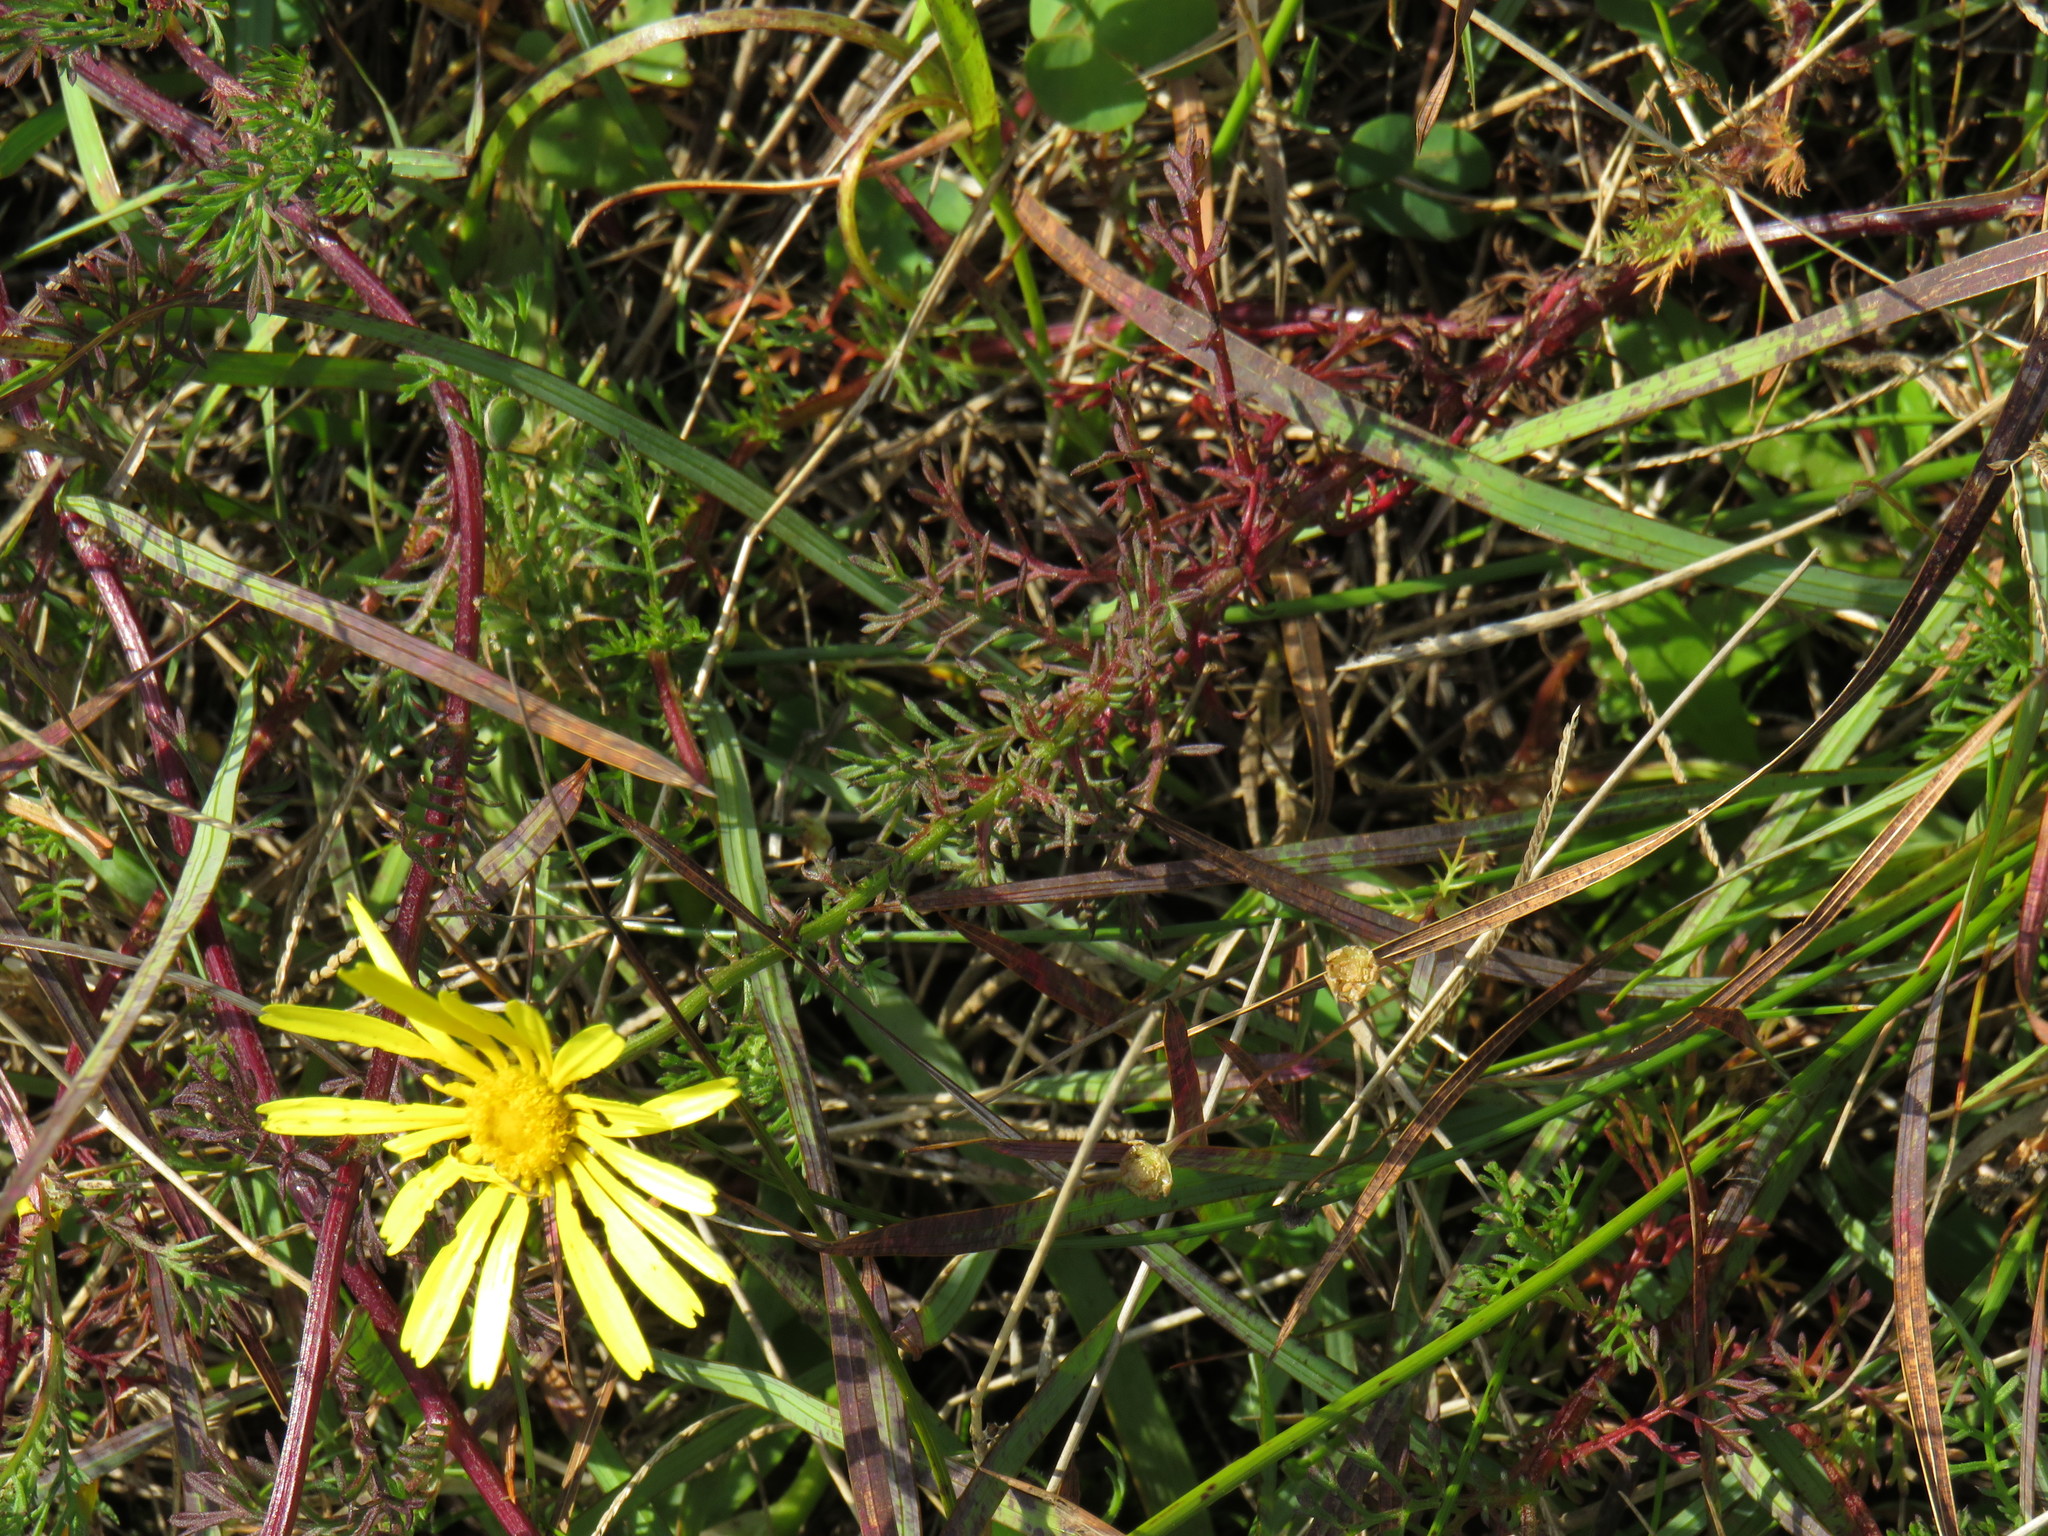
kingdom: Plantae
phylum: Tracheophyta
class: Magnoliopsida
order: Asterales
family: Asteraceae
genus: Ursinia
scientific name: Ursinia anthemoides
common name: Ursinia
